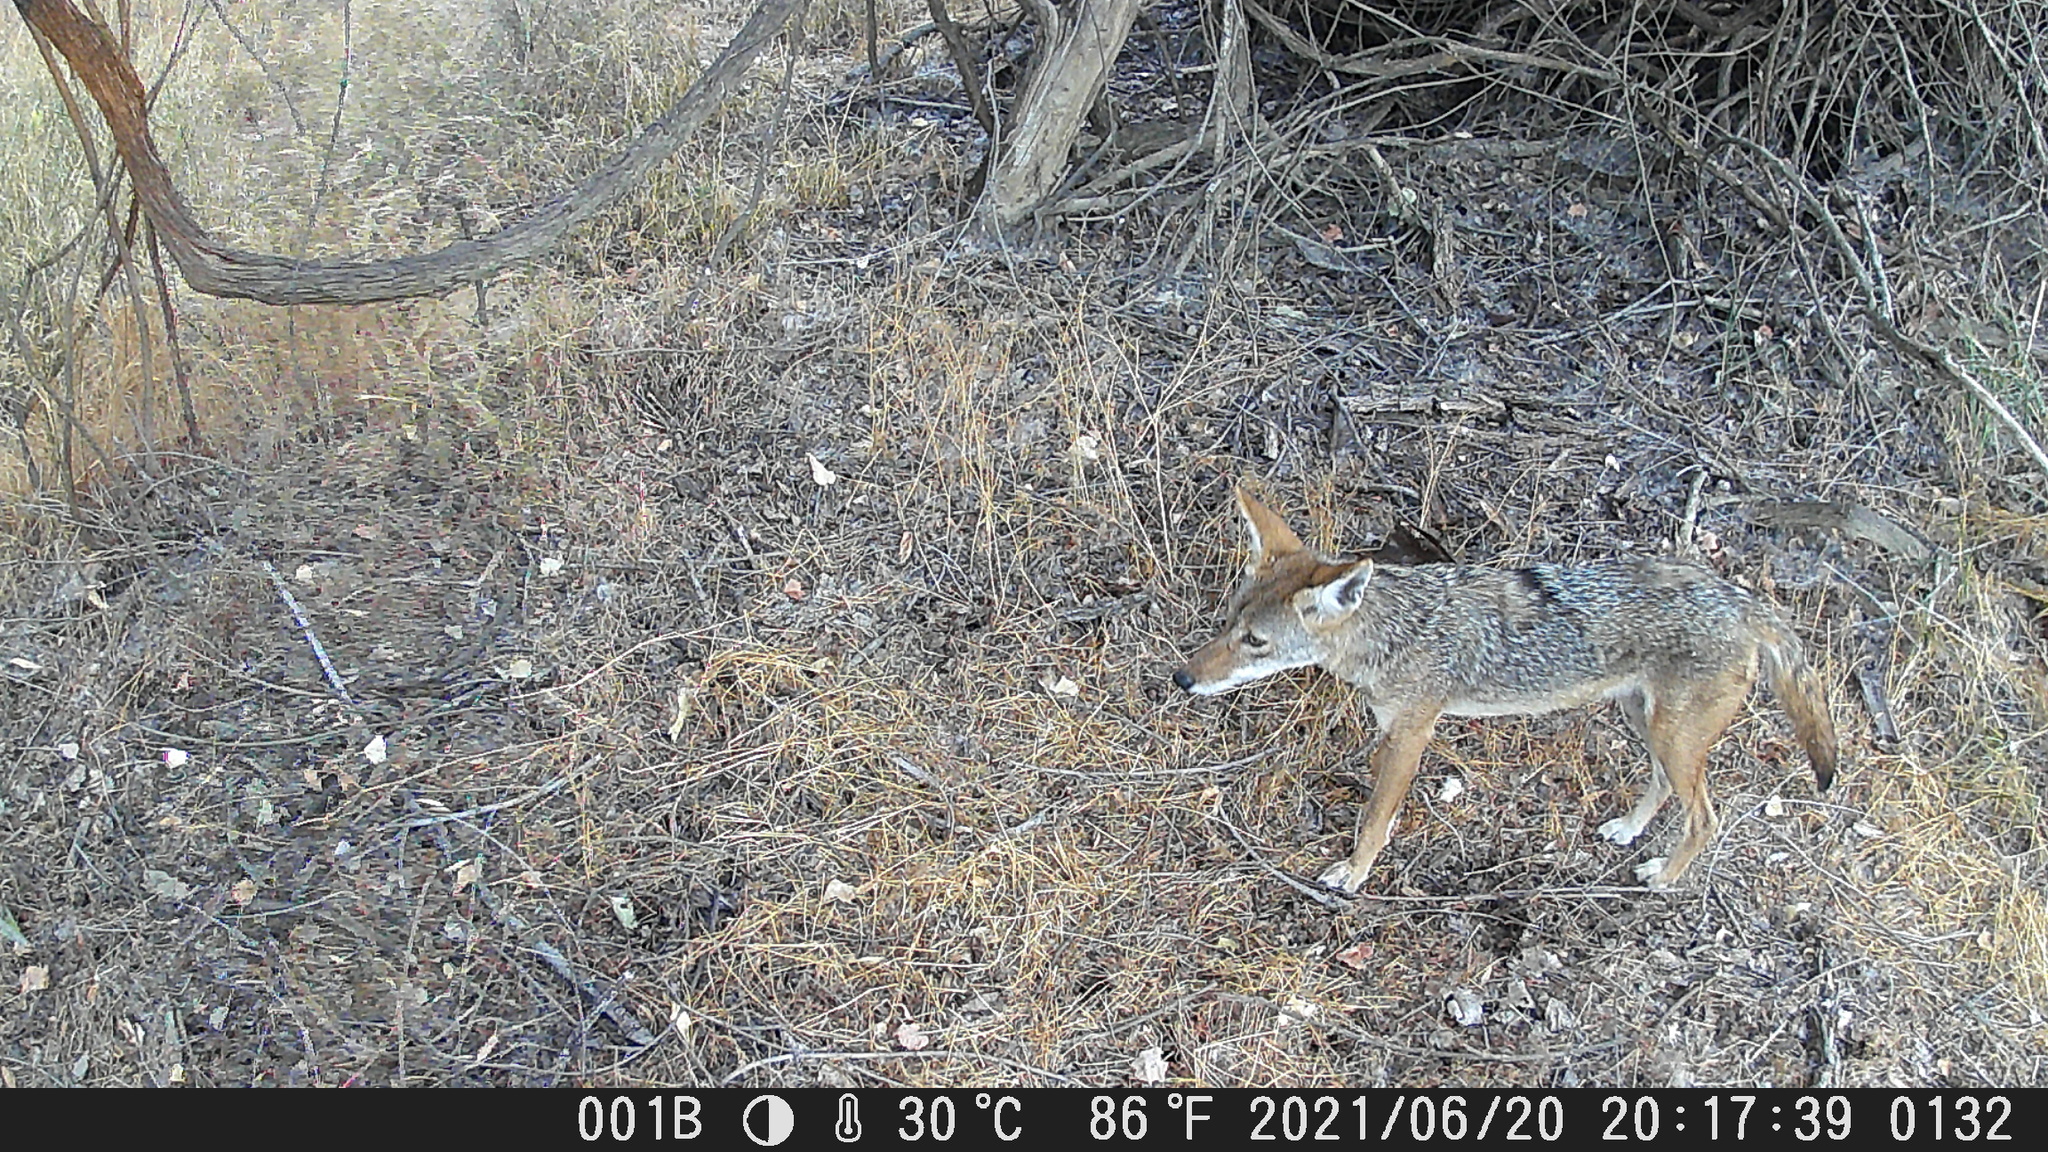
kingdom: Animalia
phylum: Chordata
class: Mammalia
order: Carnivora
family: Canidae
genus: Canis
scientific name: Canis latrans
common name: Coyote
